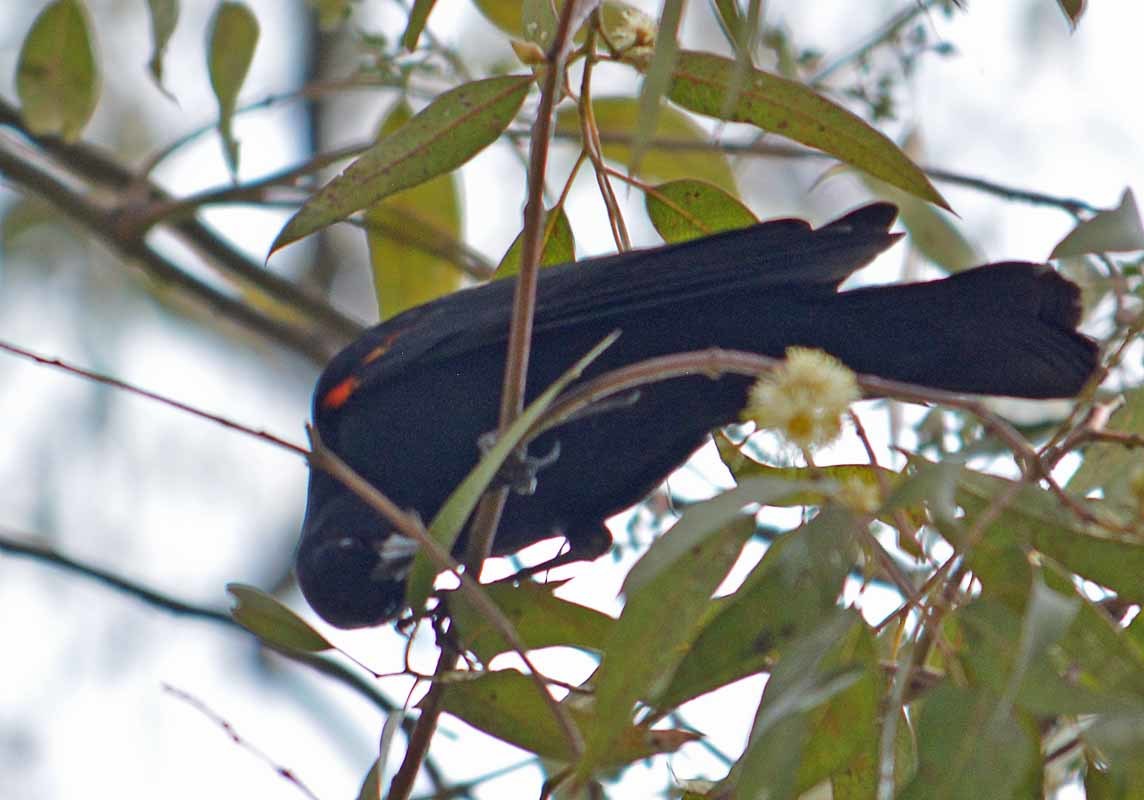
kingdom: Animalia
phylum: Chordata
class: Aves
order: Passeriformes
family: Icteridae
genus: Agelaius
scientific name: Agelaius phoeniceus
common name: Red-winged blackbird
